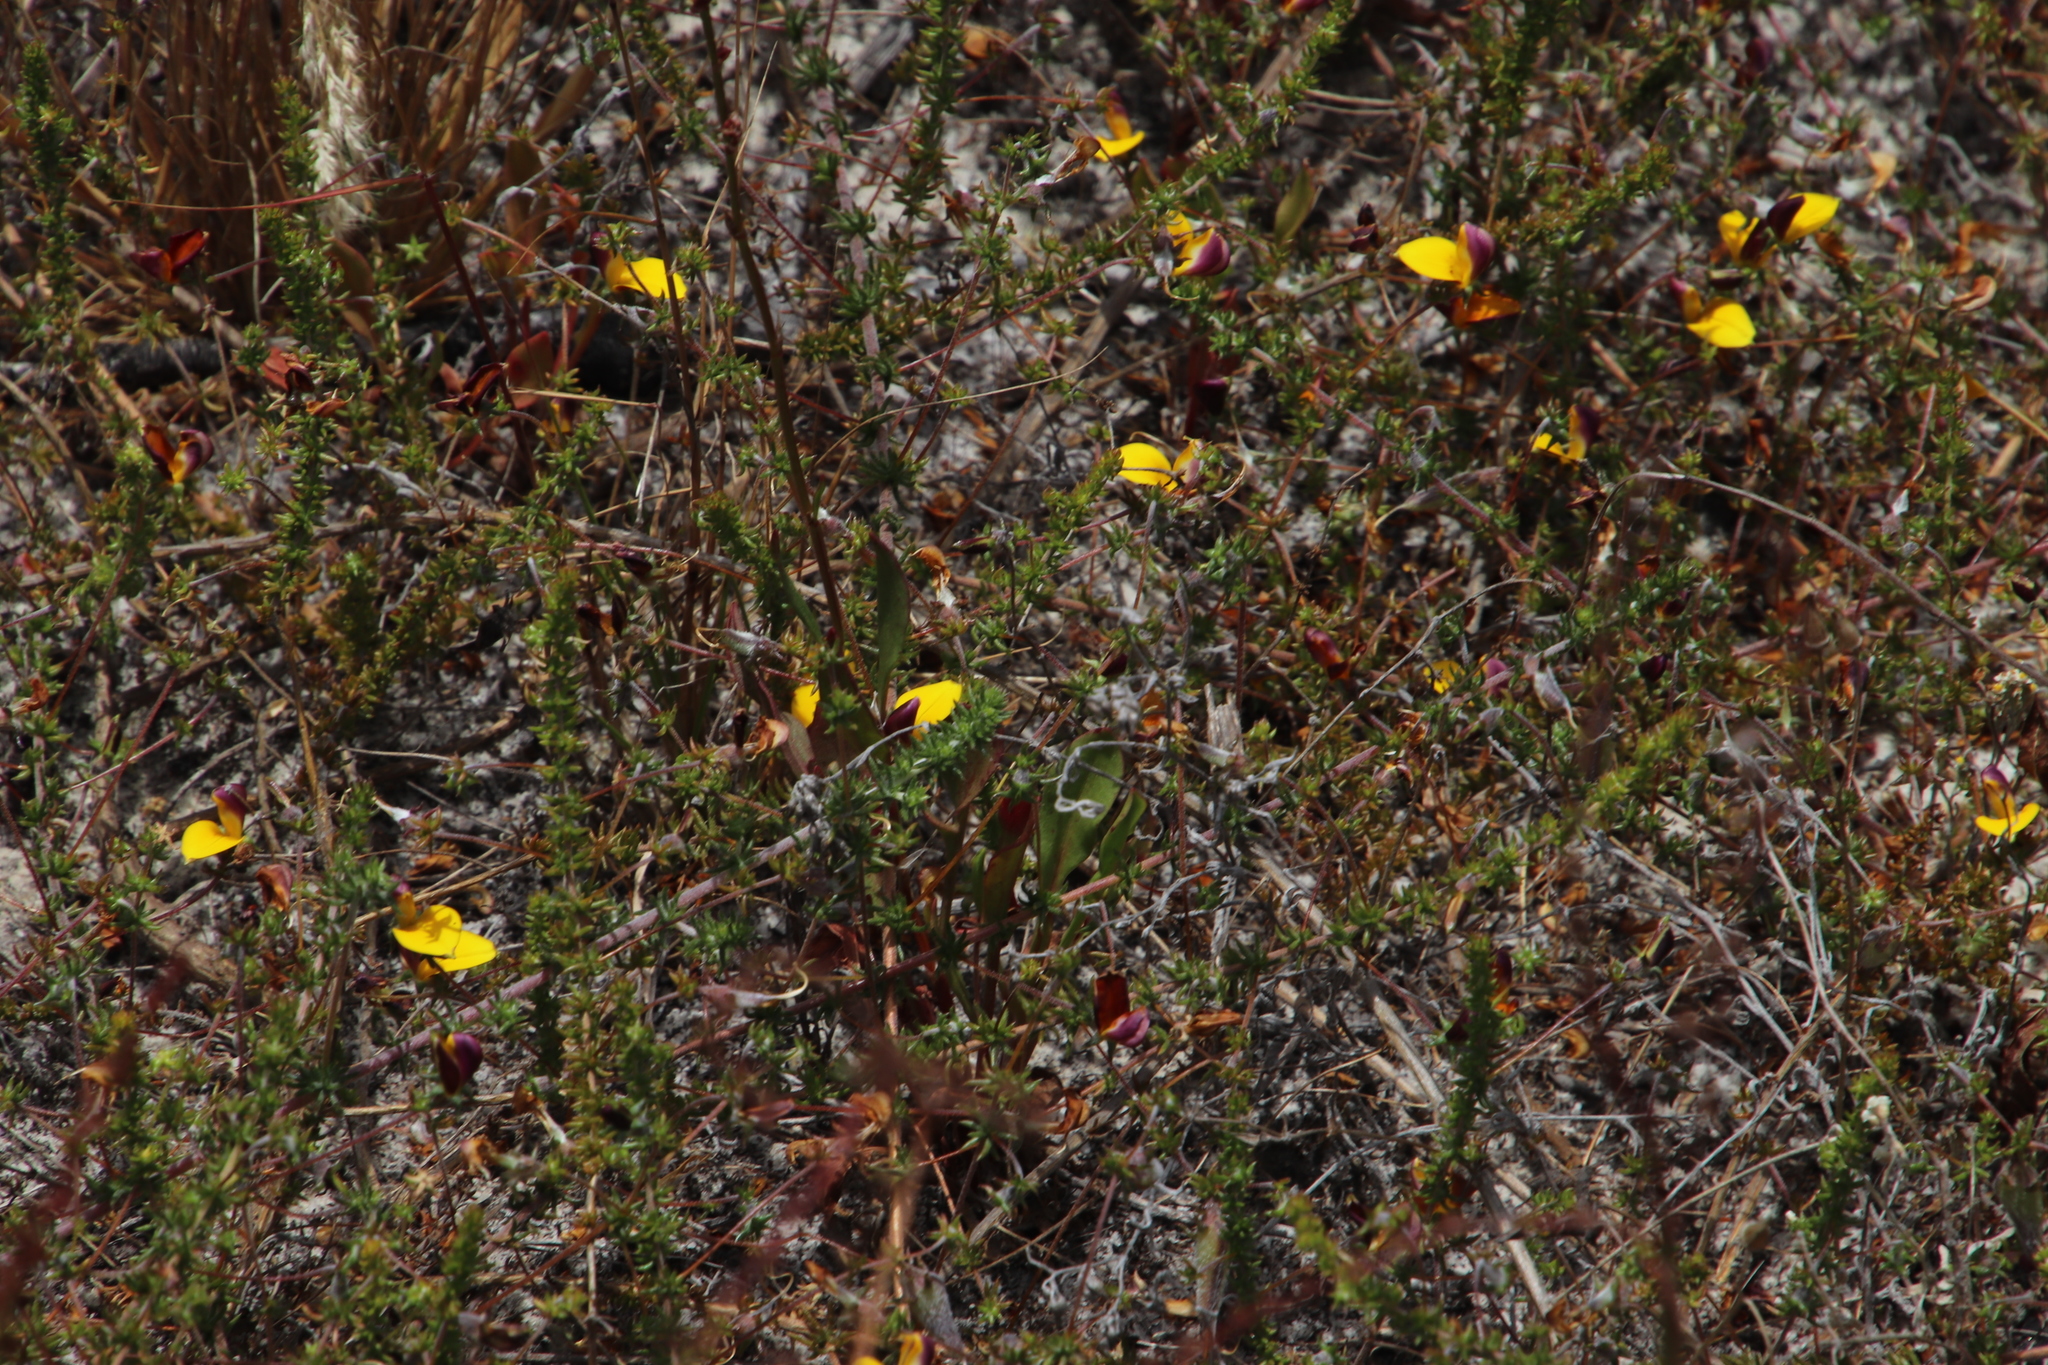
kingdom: Plantae
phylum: Tracheophyta
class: Magnoliopsida
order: Fabales
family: Fabaceae
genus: Aspalathus
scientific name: Aspalathus retroflexa
